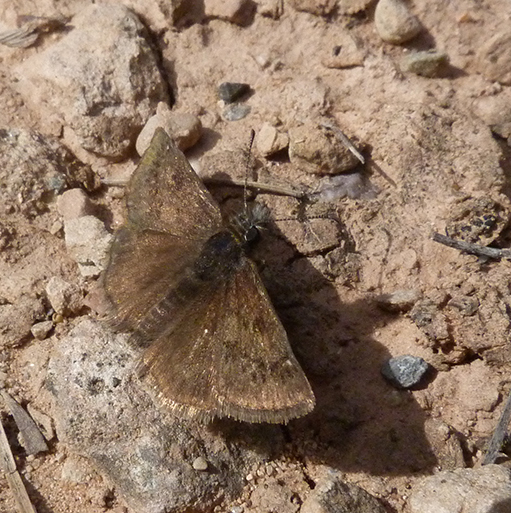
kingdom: Animalia
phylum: Arthropoda
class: Insecta
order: Lepidoptera
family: Hesperiidae
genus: Erynnis
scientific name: Erynnis tages
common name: Dingy skipper
